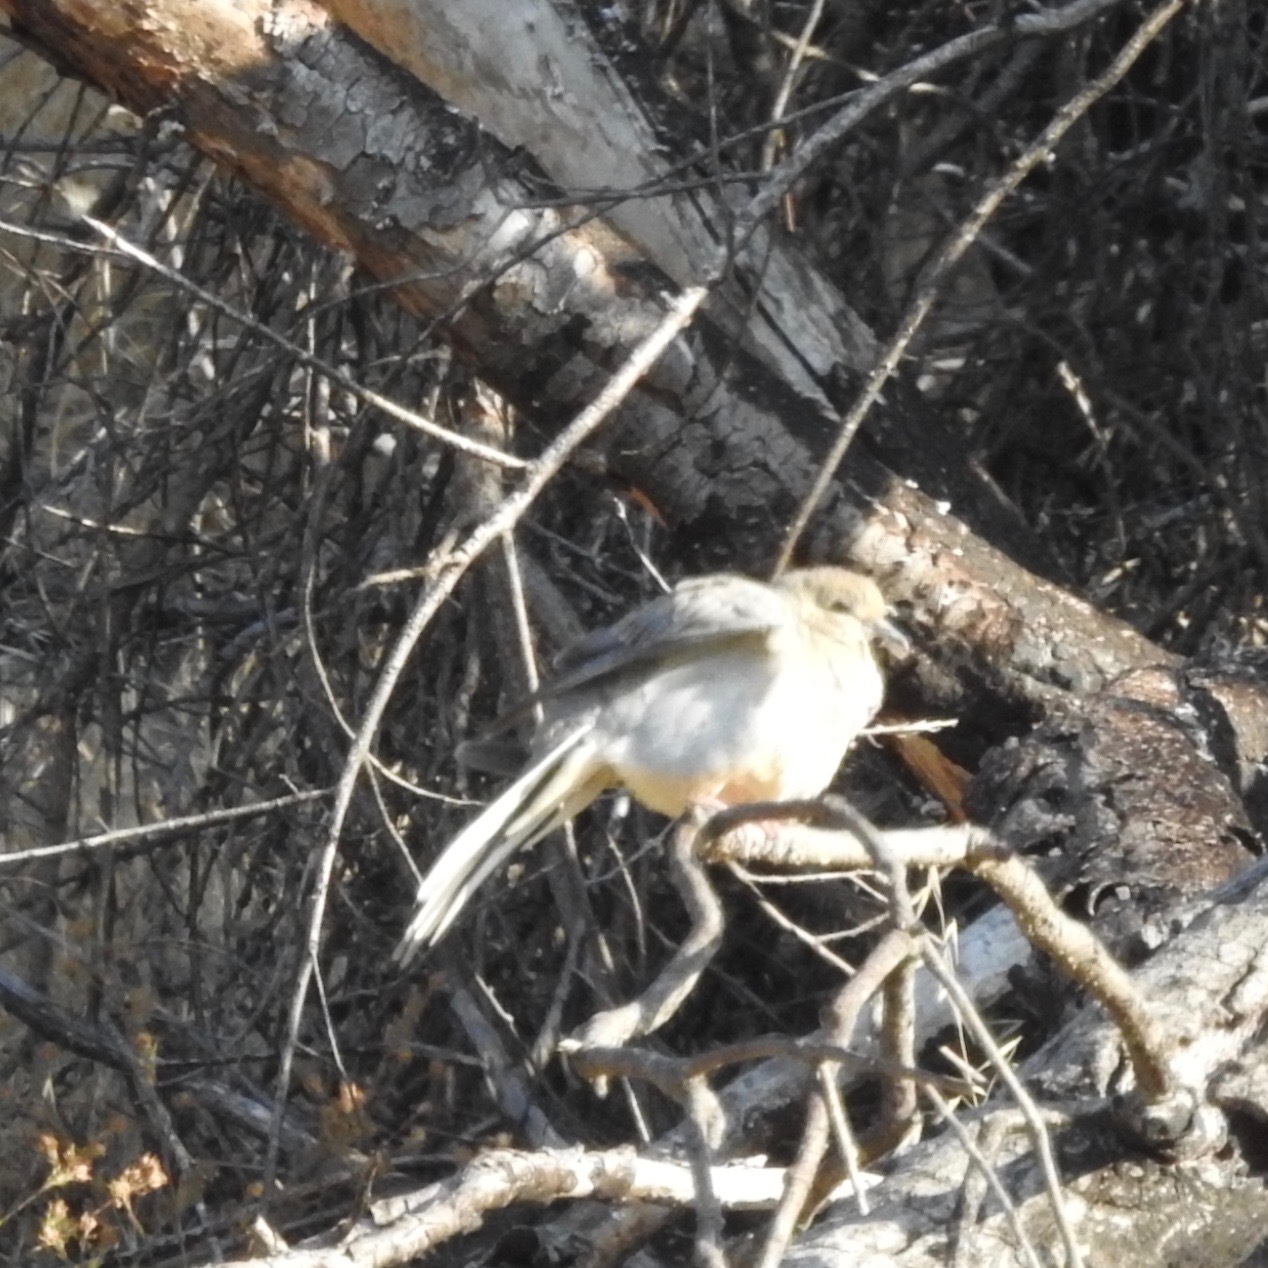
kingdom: Animalia
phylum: Chordata
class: Aves
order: Columbiformes
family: Columbidae
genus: Zenaida
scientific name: Zenaida macroura
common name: Mourning dove
